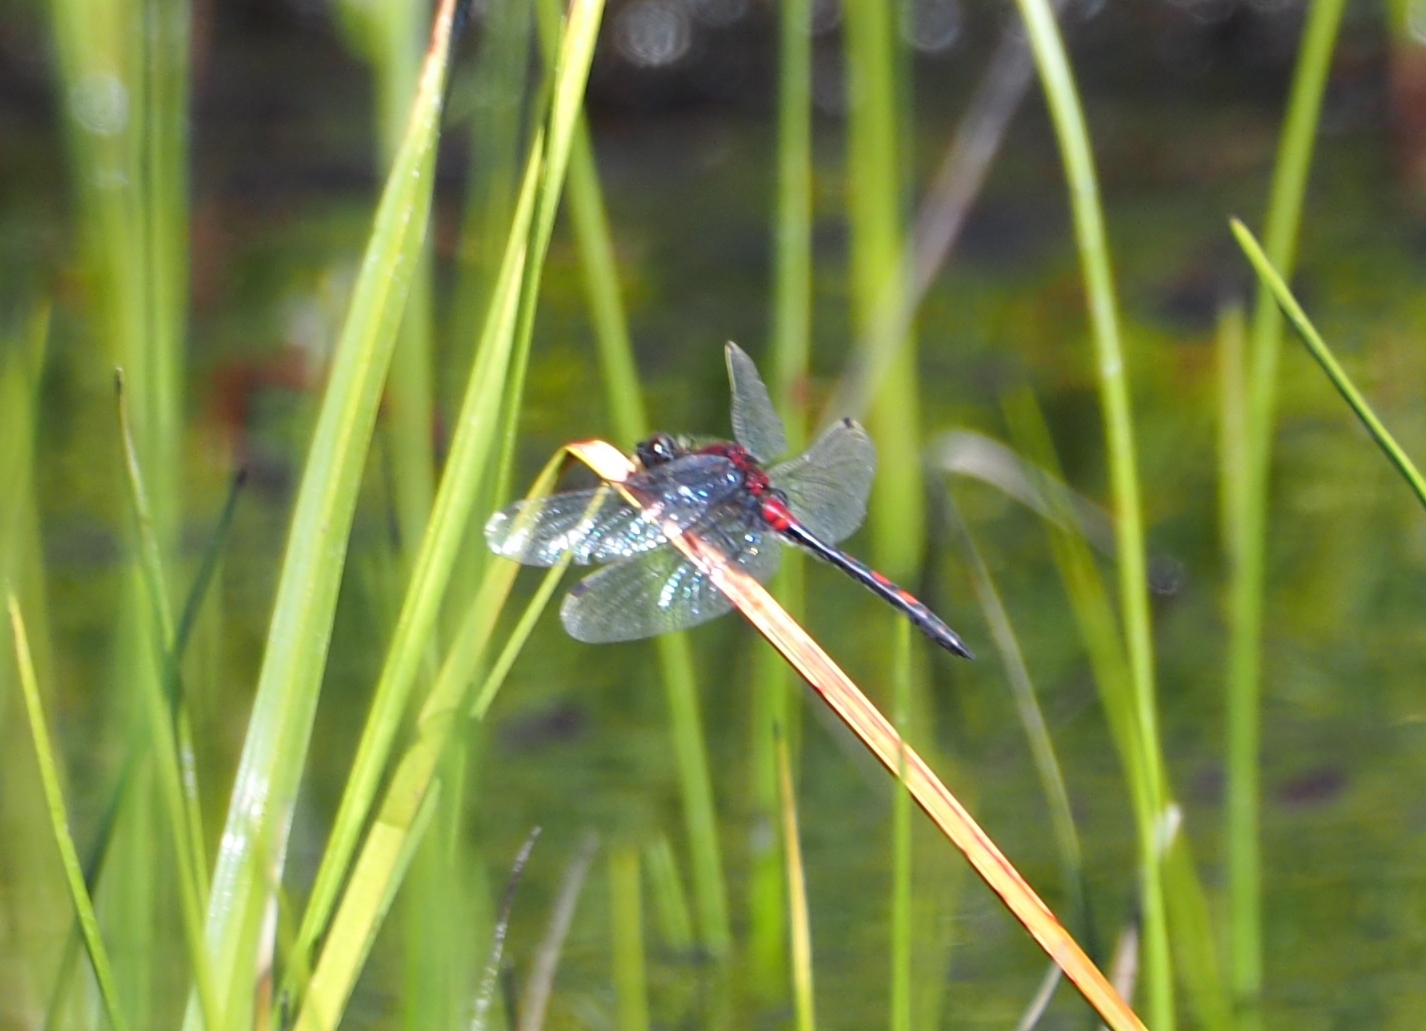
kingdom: Animalia
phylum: Arthropoda
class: Insecta
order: Odonata
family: Libellulidae
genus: Leucorrhinia
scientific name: Leucorrhinia dubia
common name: White-faced darter
